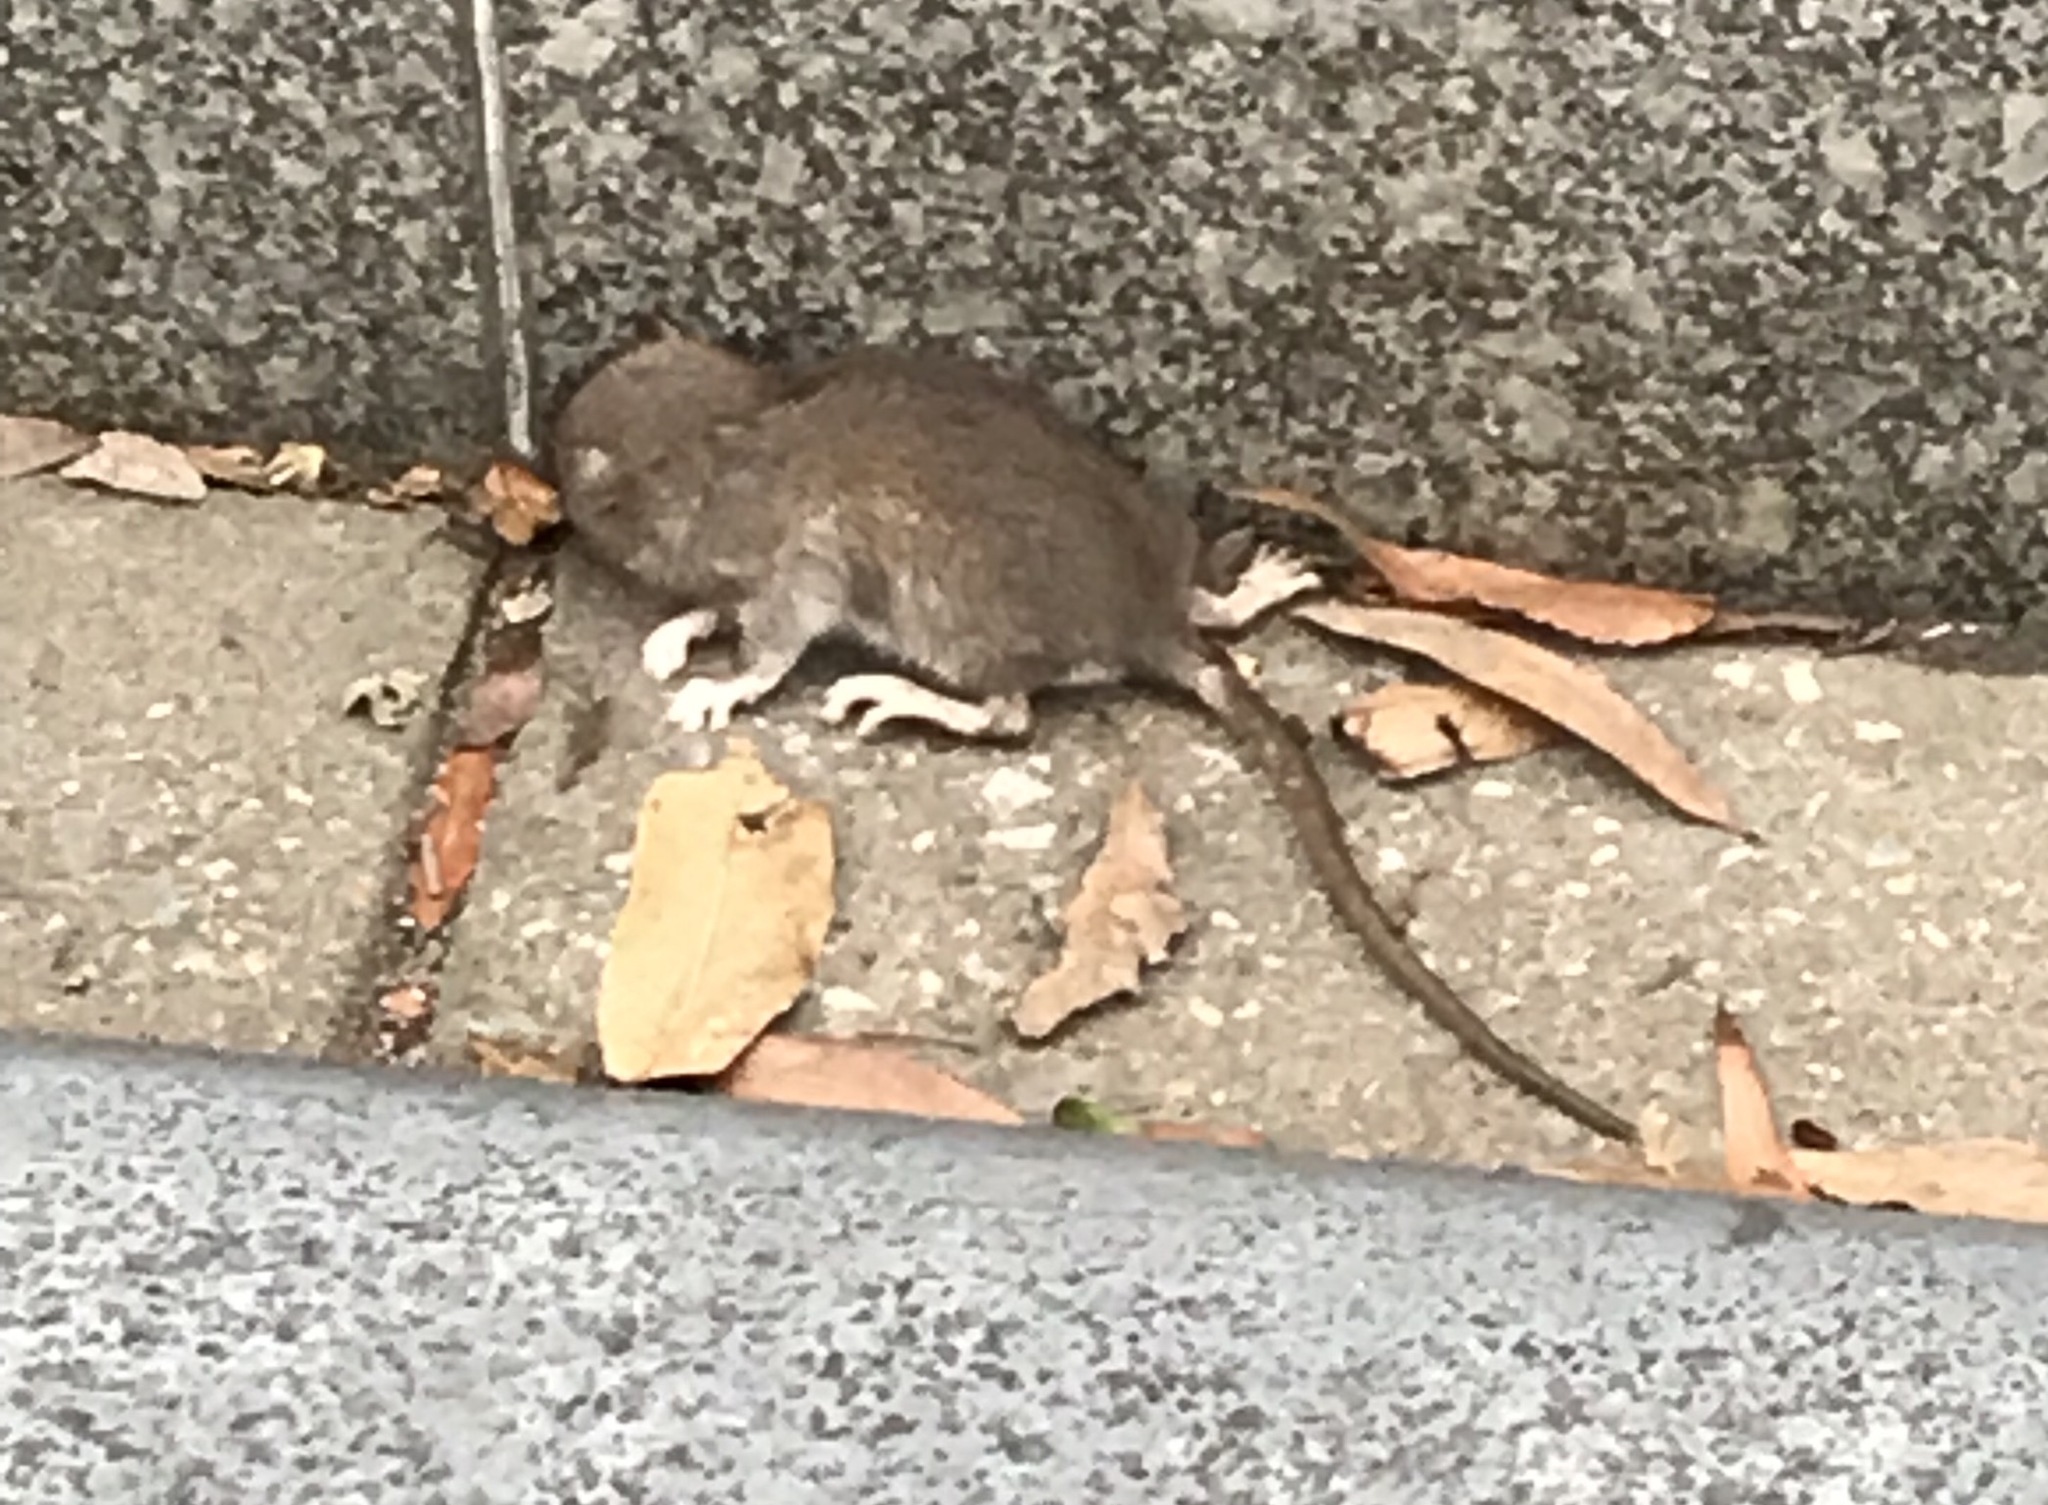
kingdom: Animalia
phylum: Chordata
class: Mammalia
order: Rodentia
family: Muridae
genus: Rattus
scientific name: Rattus norvegicus
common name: Brown rat
